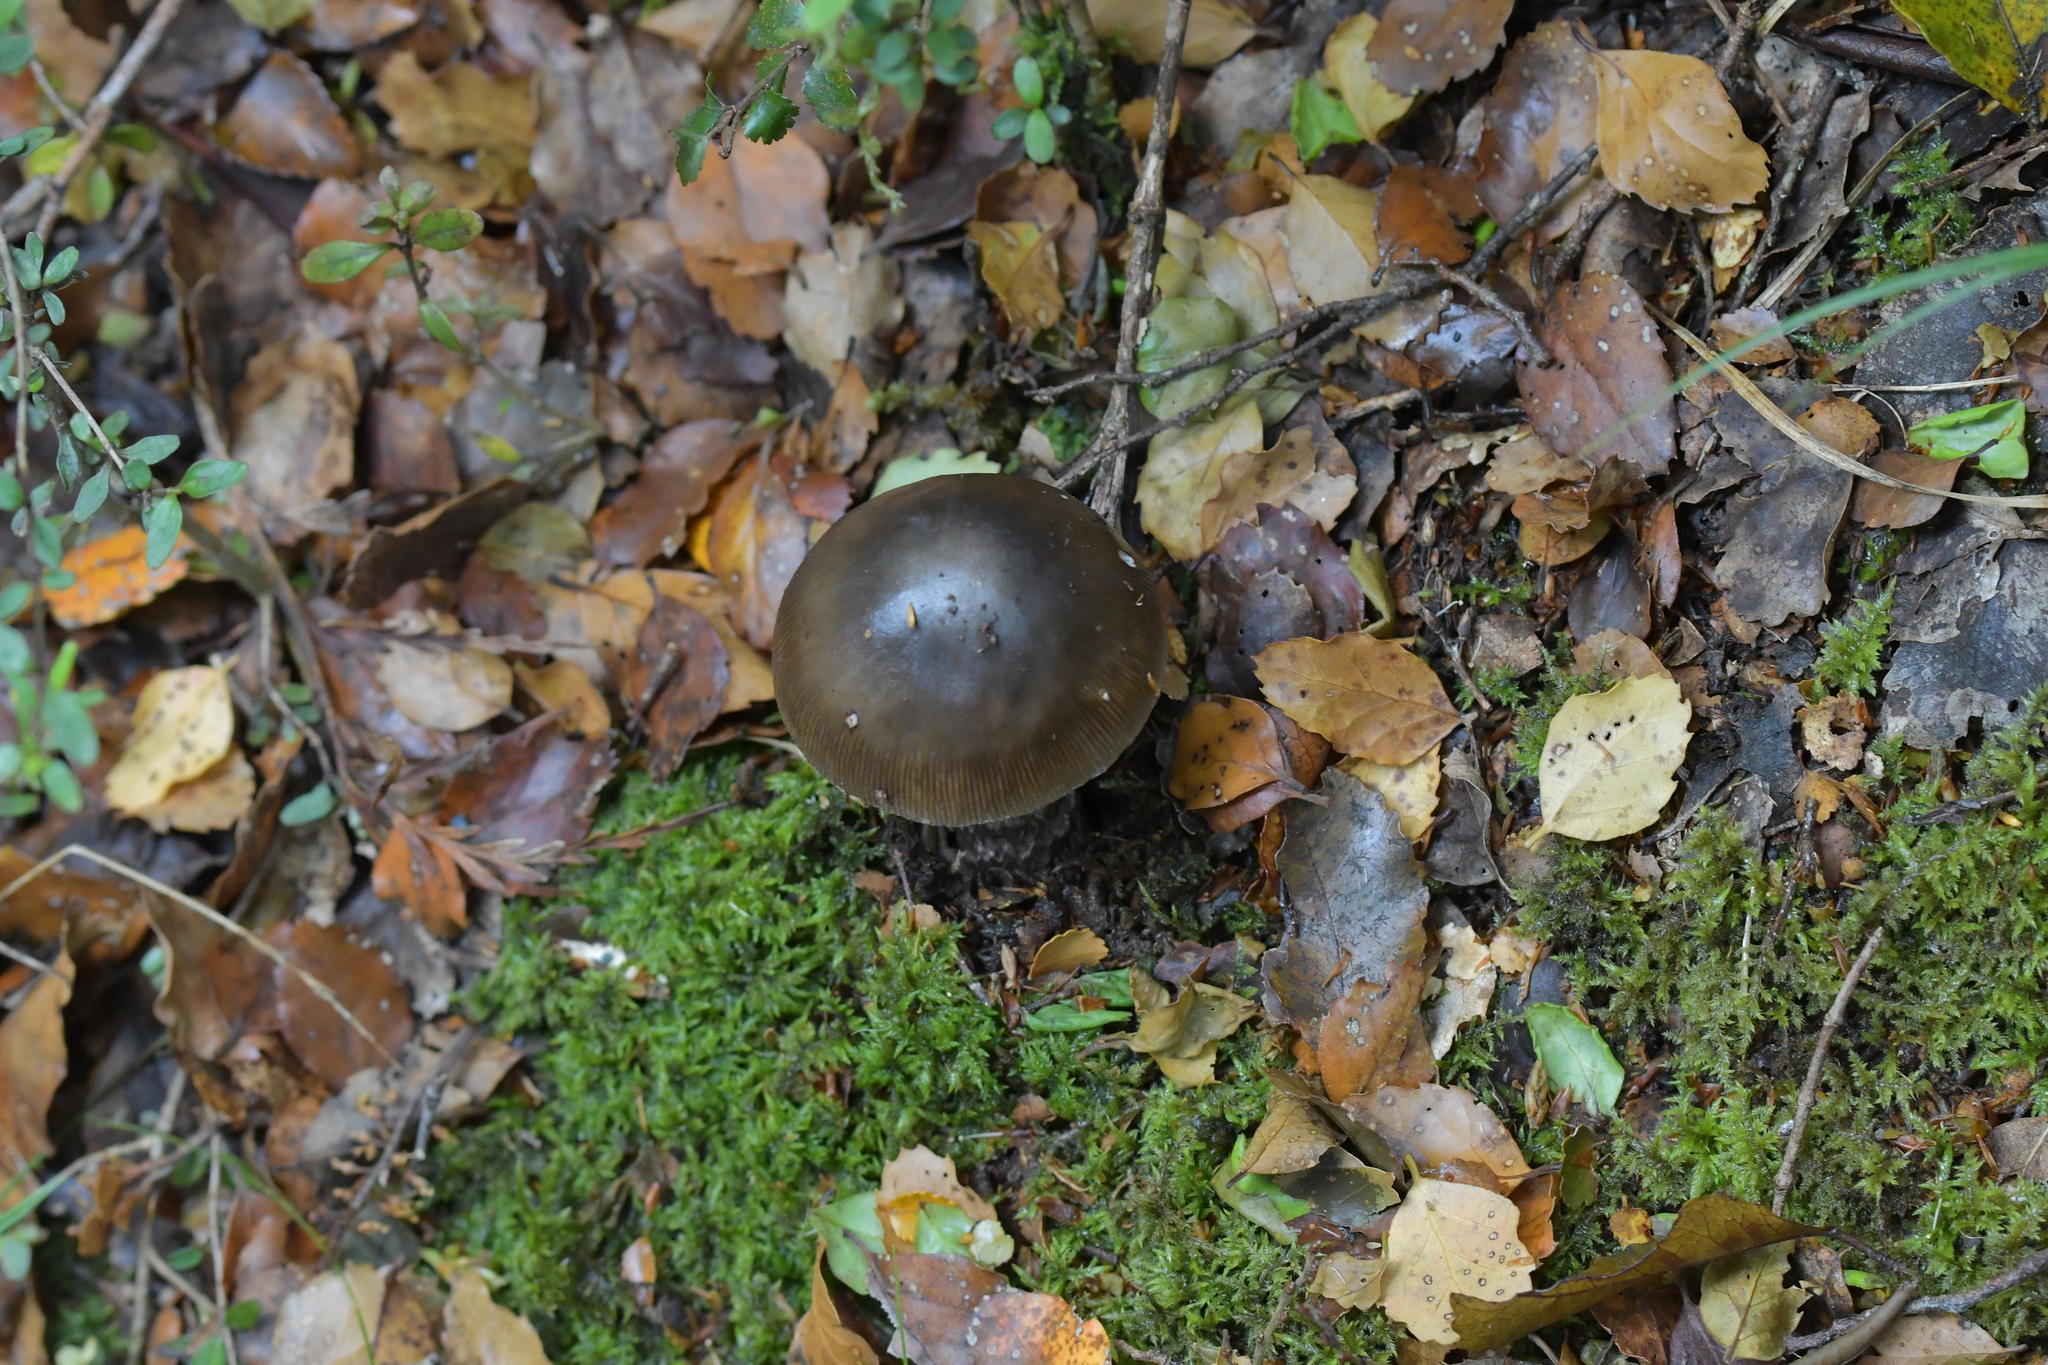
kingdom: Fungi
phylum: Basidiomycota
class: Agaricomycetes
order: Agaricales
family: Amanitaceae
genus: Amanita
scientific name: Amanita nigrescens
